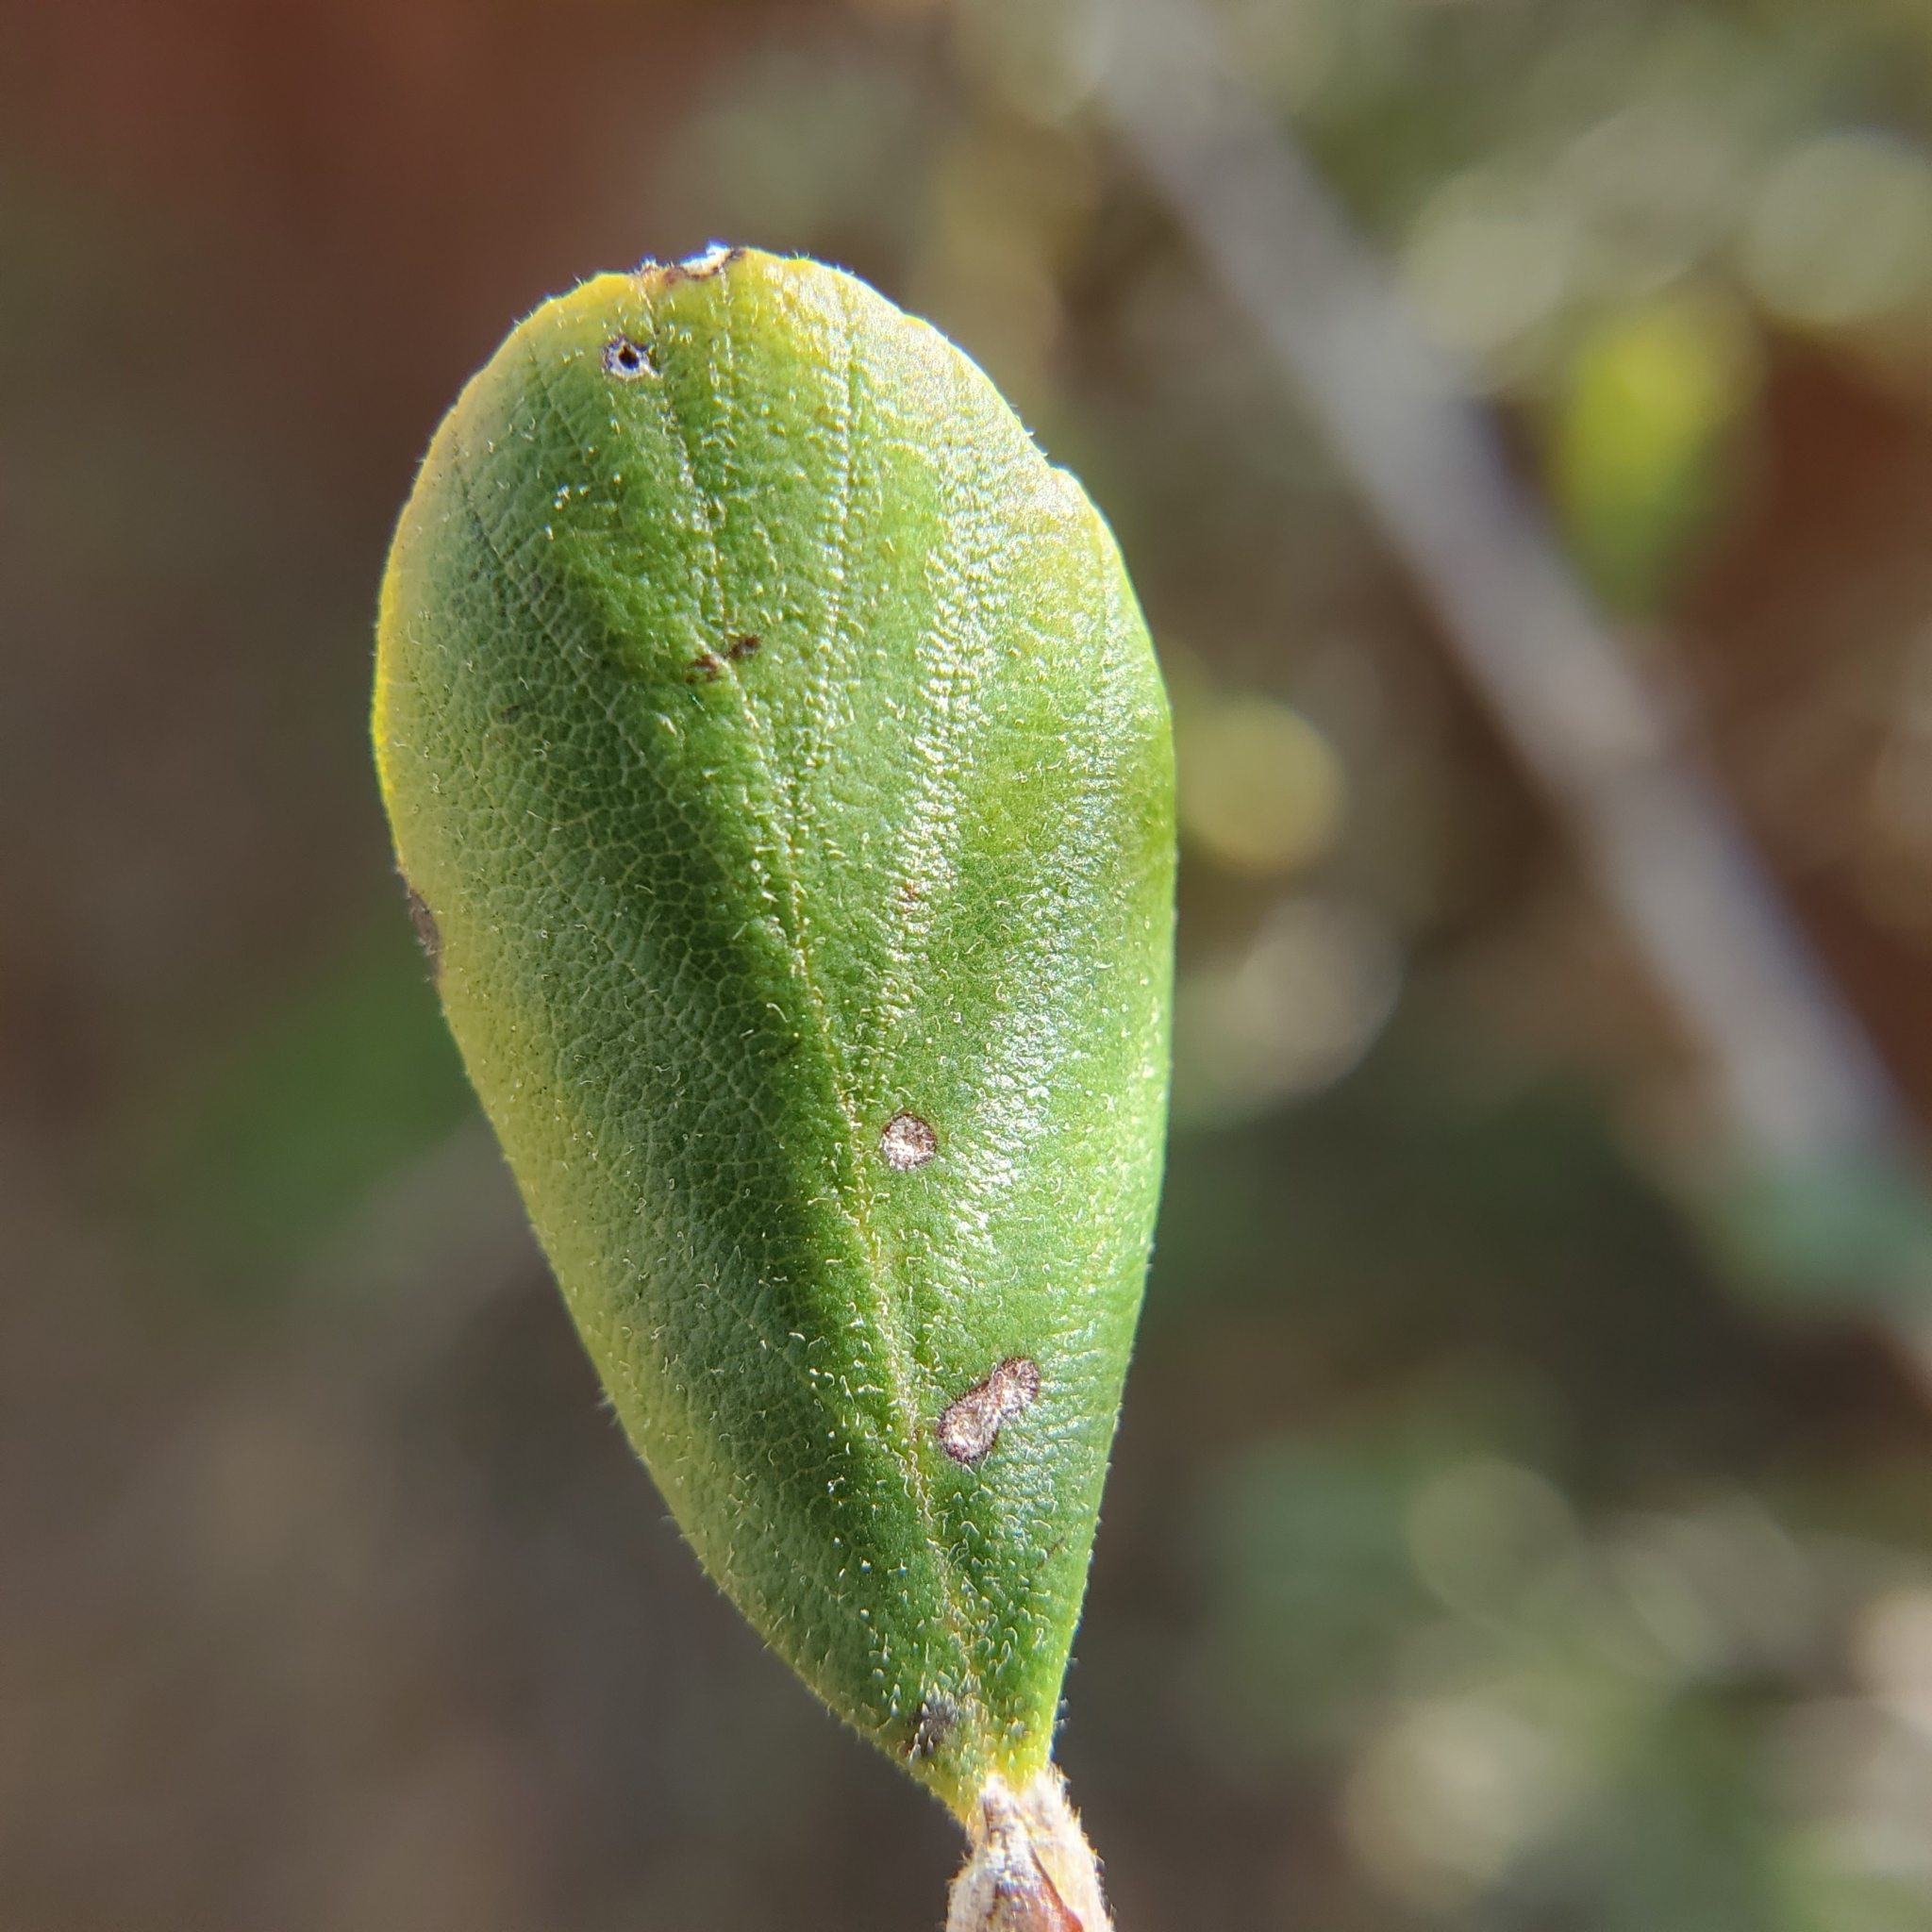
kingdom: Plantae
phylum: Tracheophyta
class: Magnoliopsida
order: Rosales
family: Rosaceae
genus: Cercocarpus
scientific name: Cercocarpus betuloides
